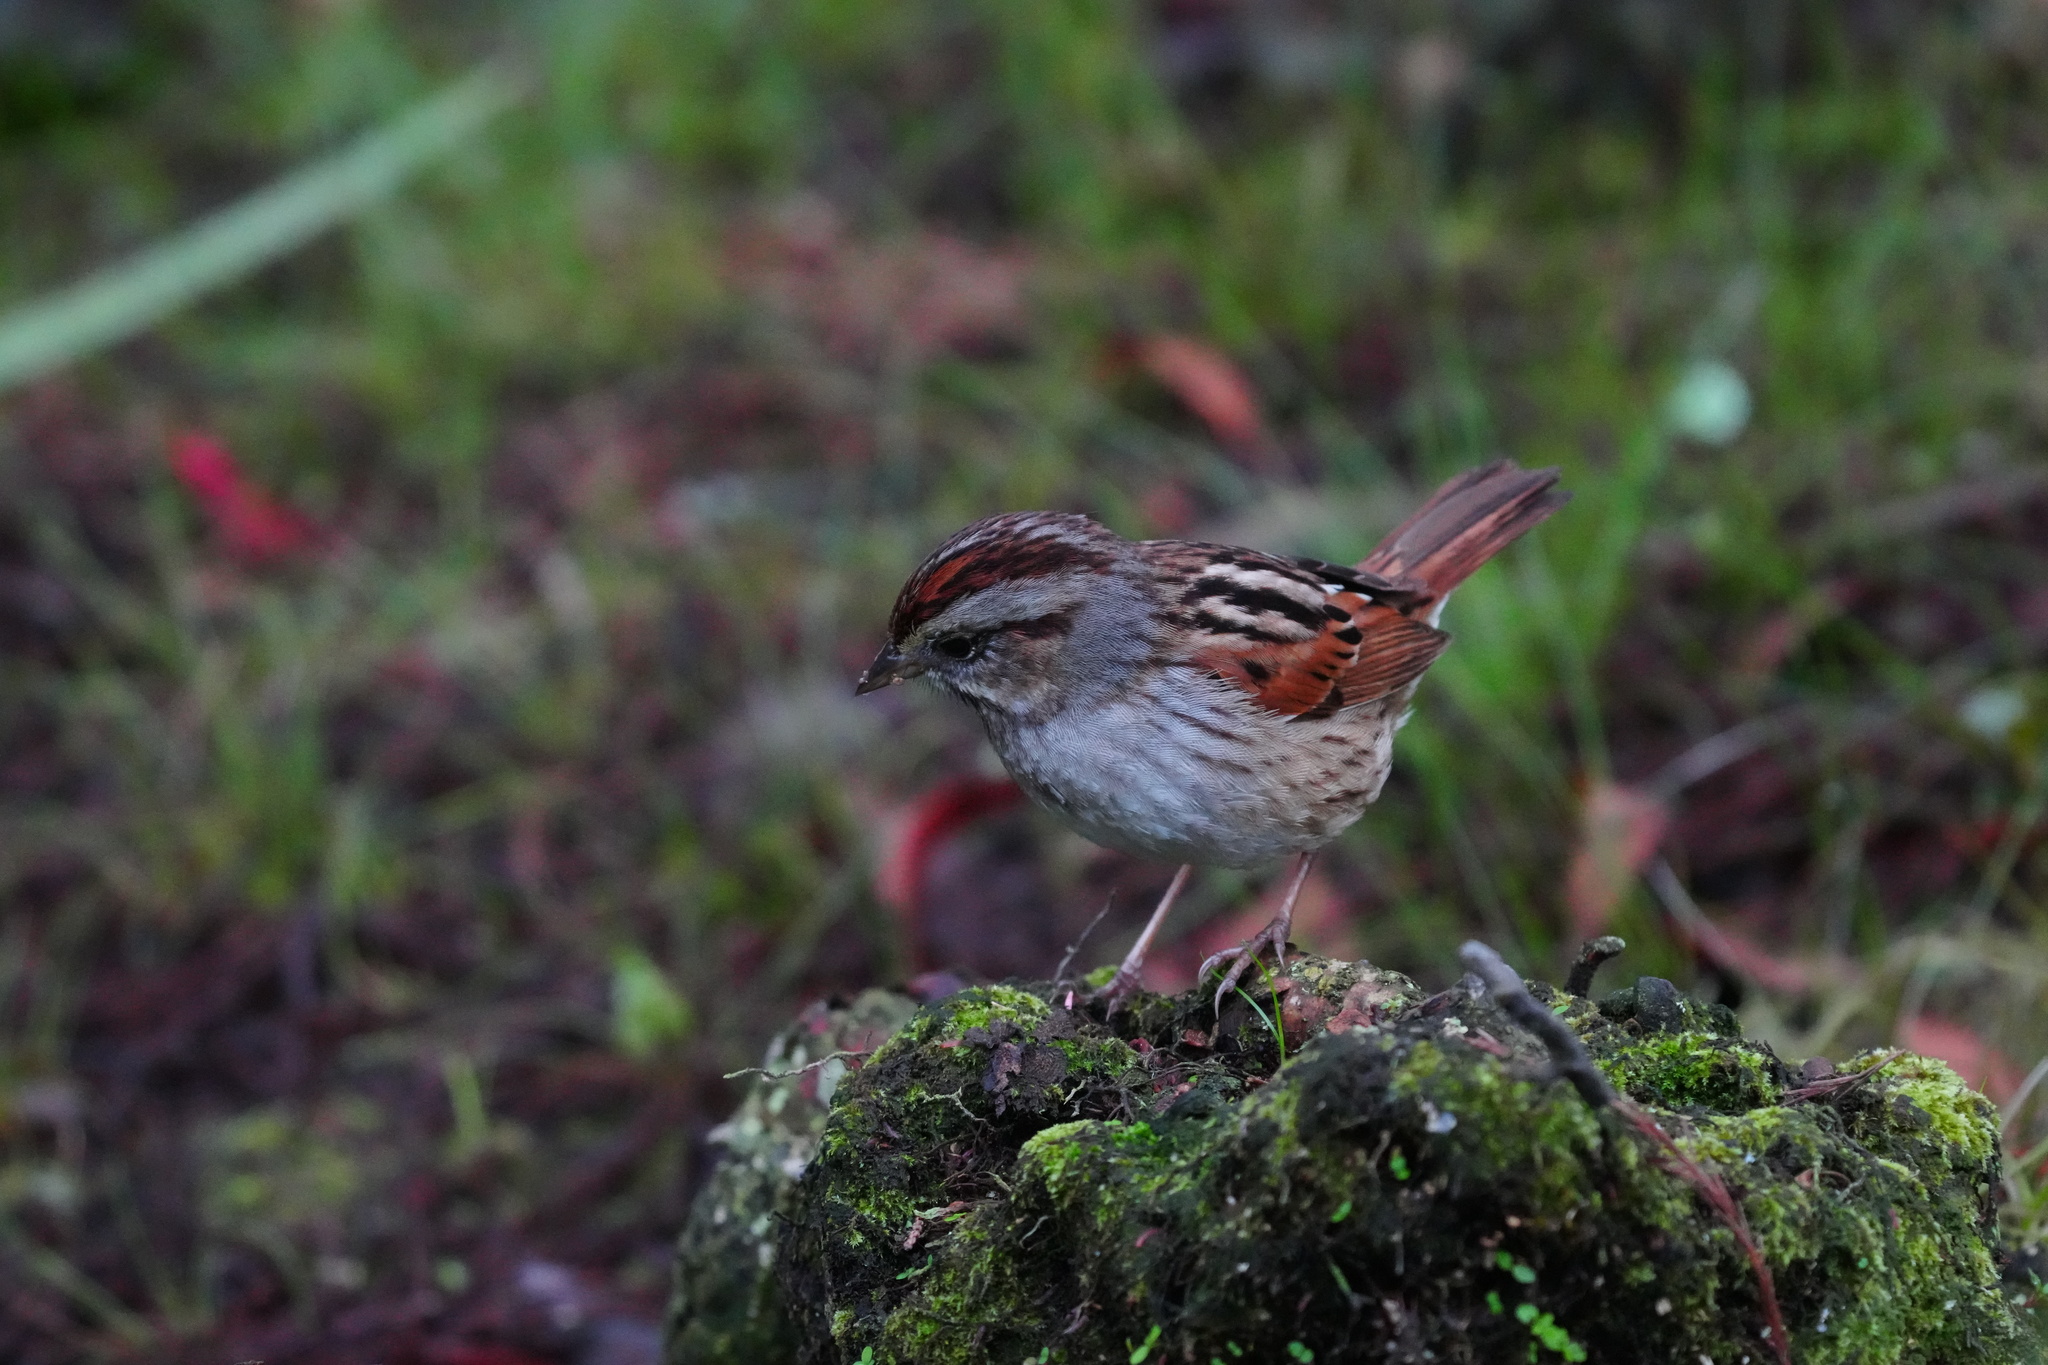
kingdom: Animalia
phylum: Chordata
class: Aves
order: Passeriformes
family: Passerellidae
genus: Melospiza
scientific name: Melospiza georgiana
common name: Swamp sparrow
